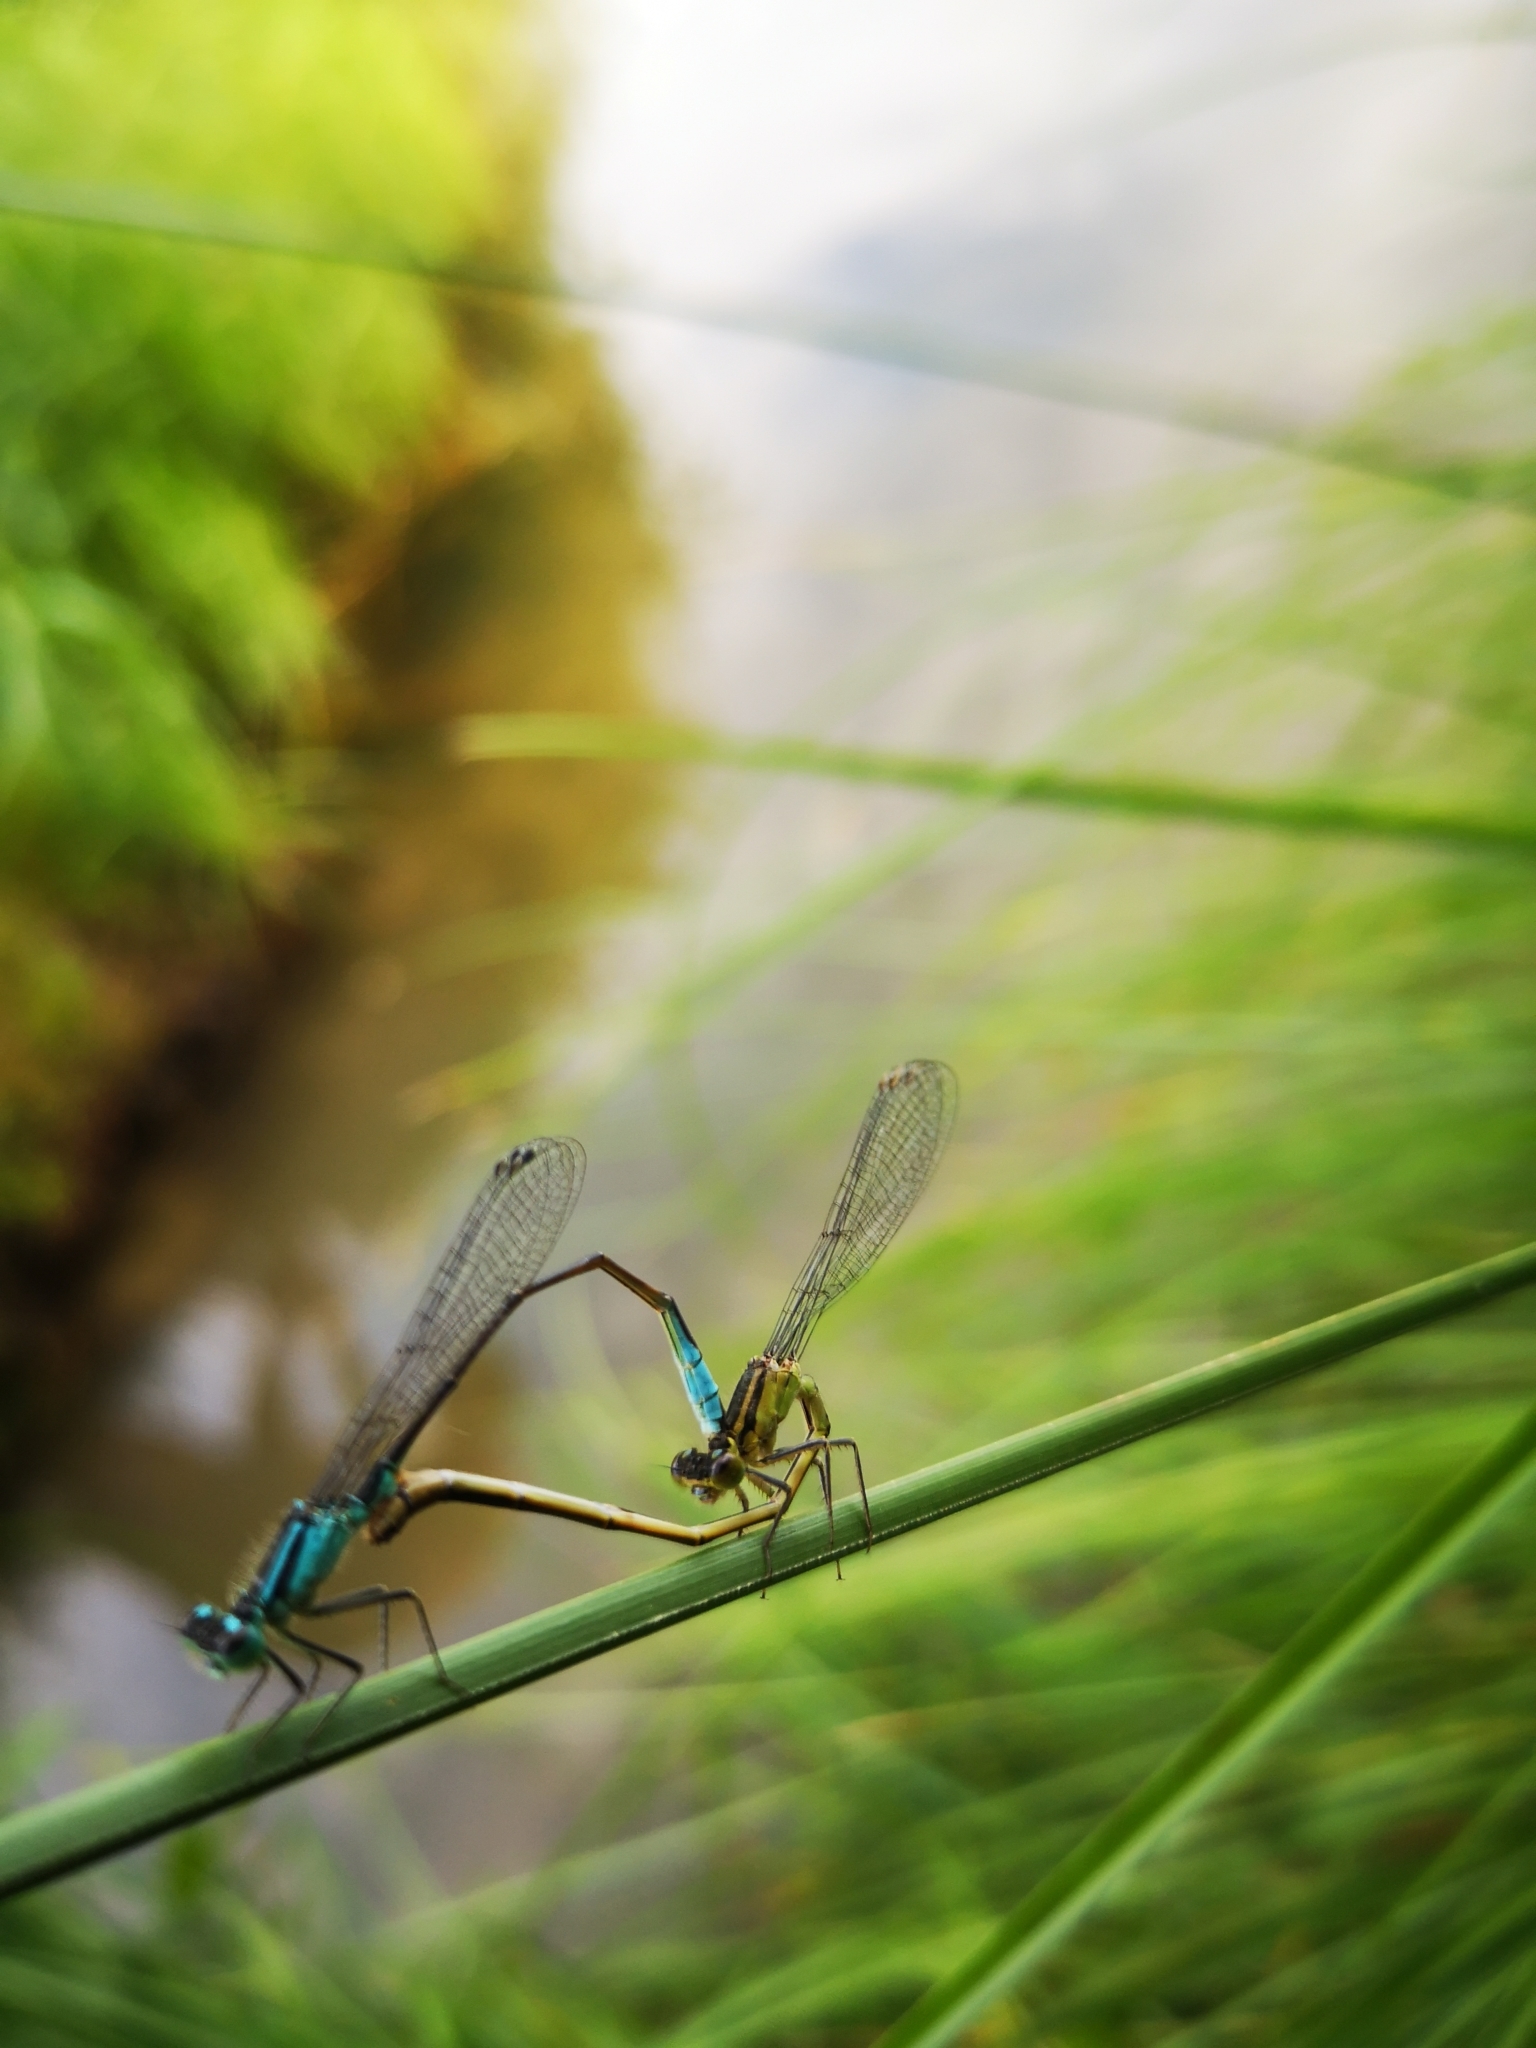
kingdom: Animalia
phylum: Arthropoda
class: Insecta
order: Odonata
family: Coenagrionidae
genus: Ischnura
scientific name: Ischnura elegans
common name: Blue-tailed damselfly
